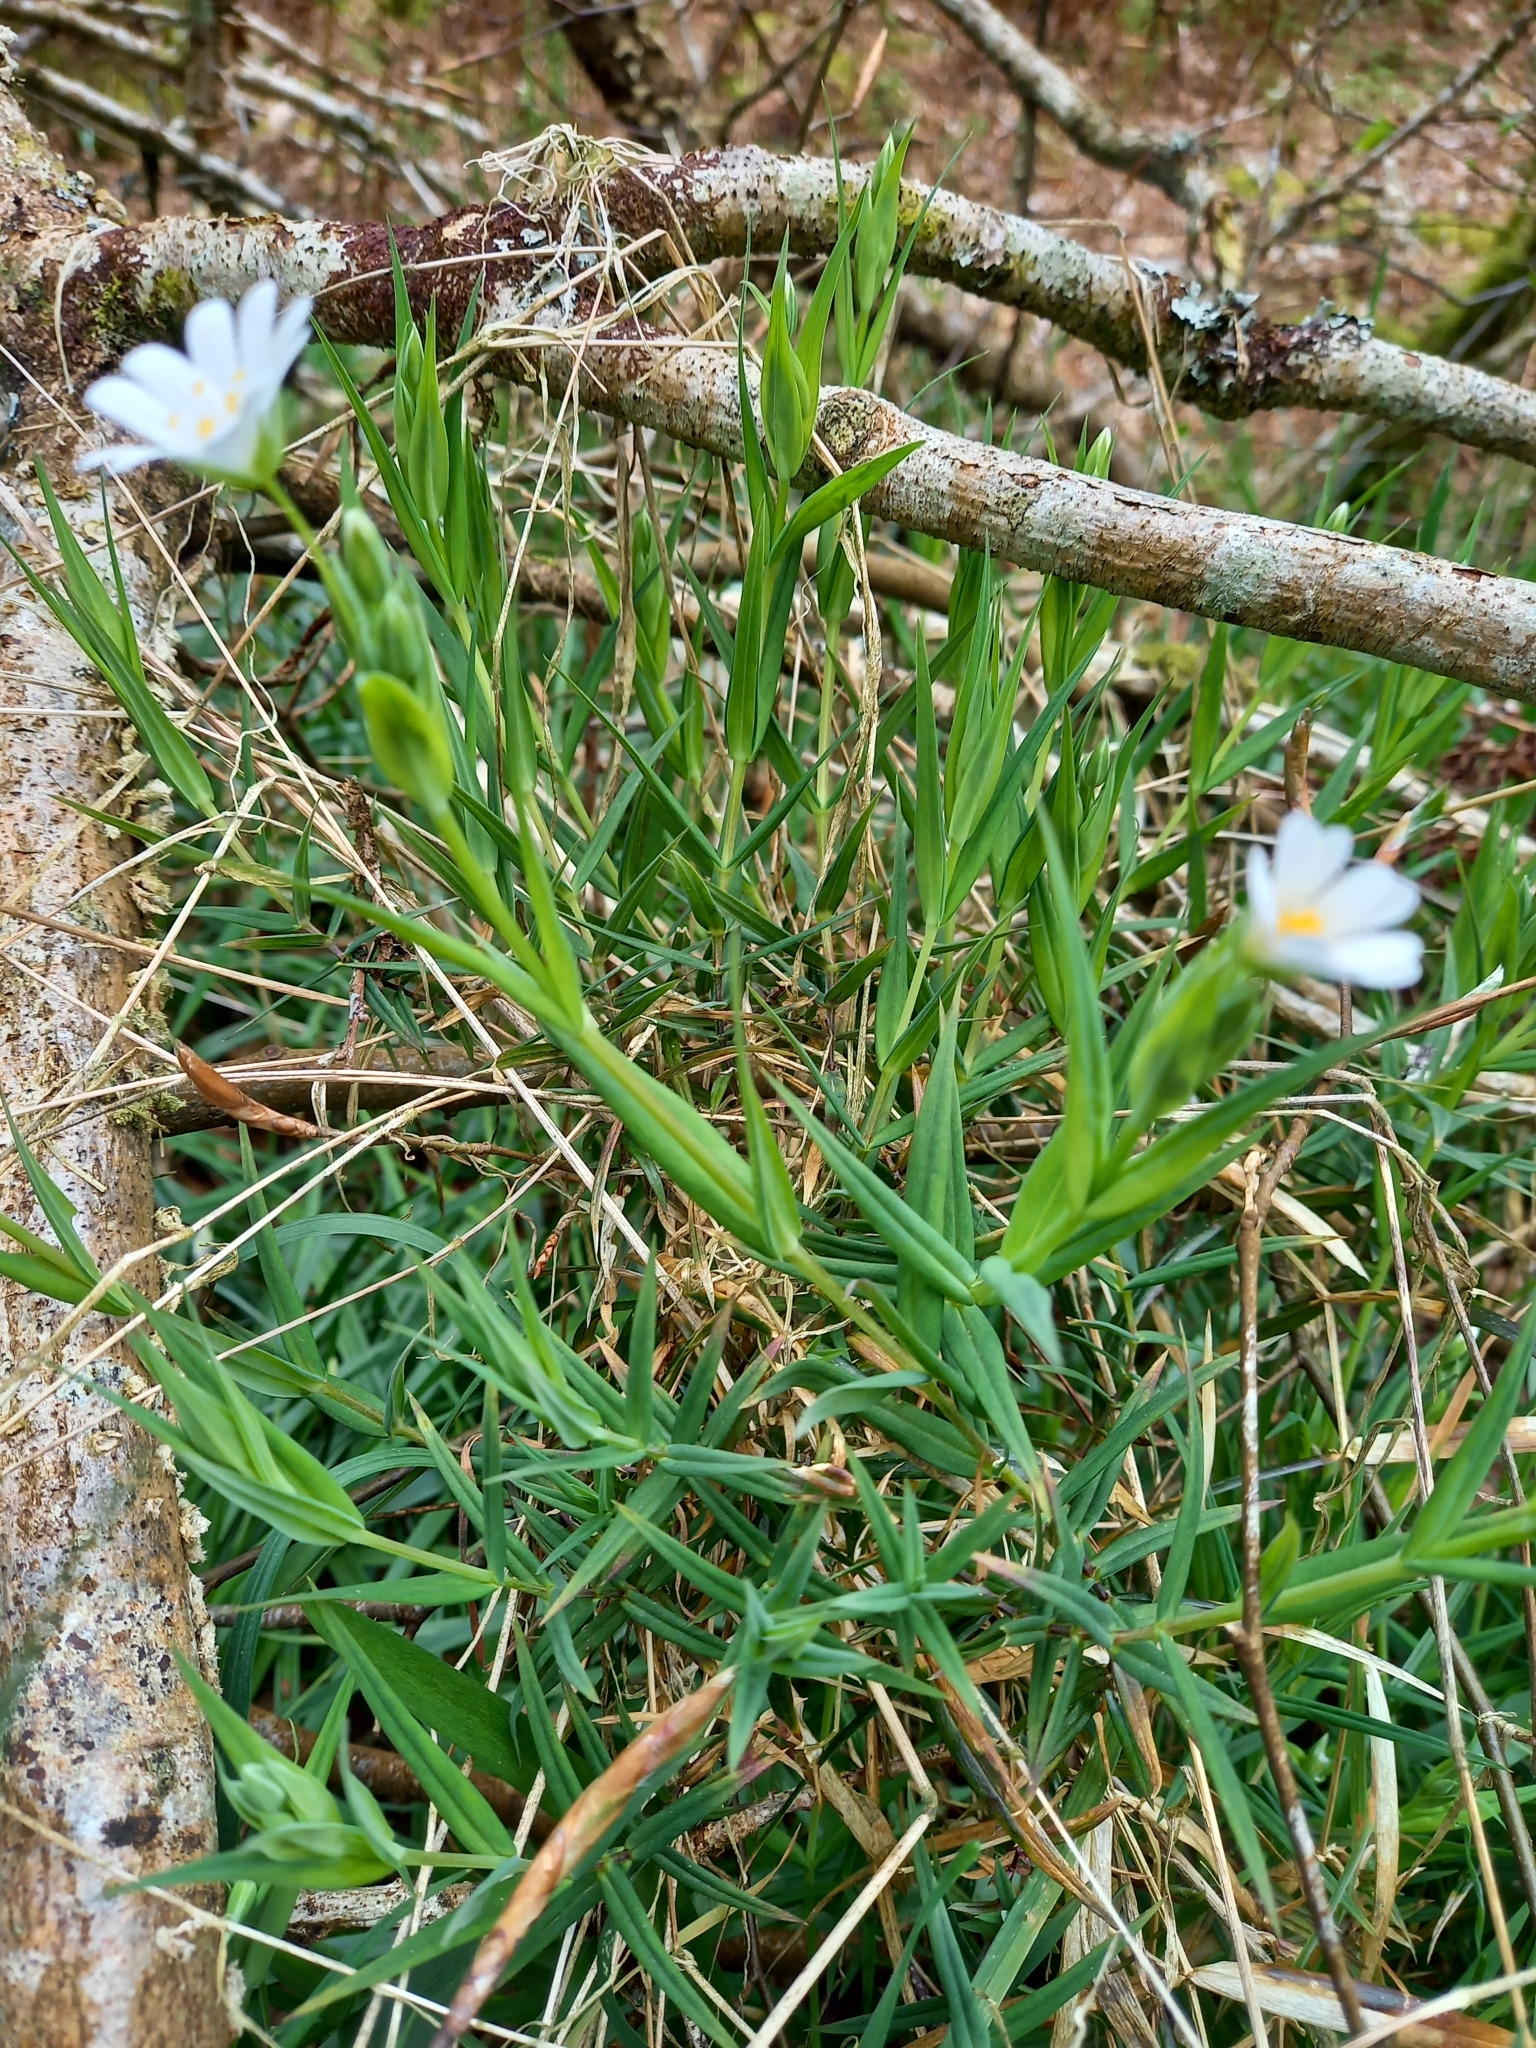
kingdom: Plantae
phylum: Tracheophyta
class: Magnoliopsida
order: Caryophyllales
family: Caryophyllaceae
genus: Rabelera
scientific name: Rabelera holostea
